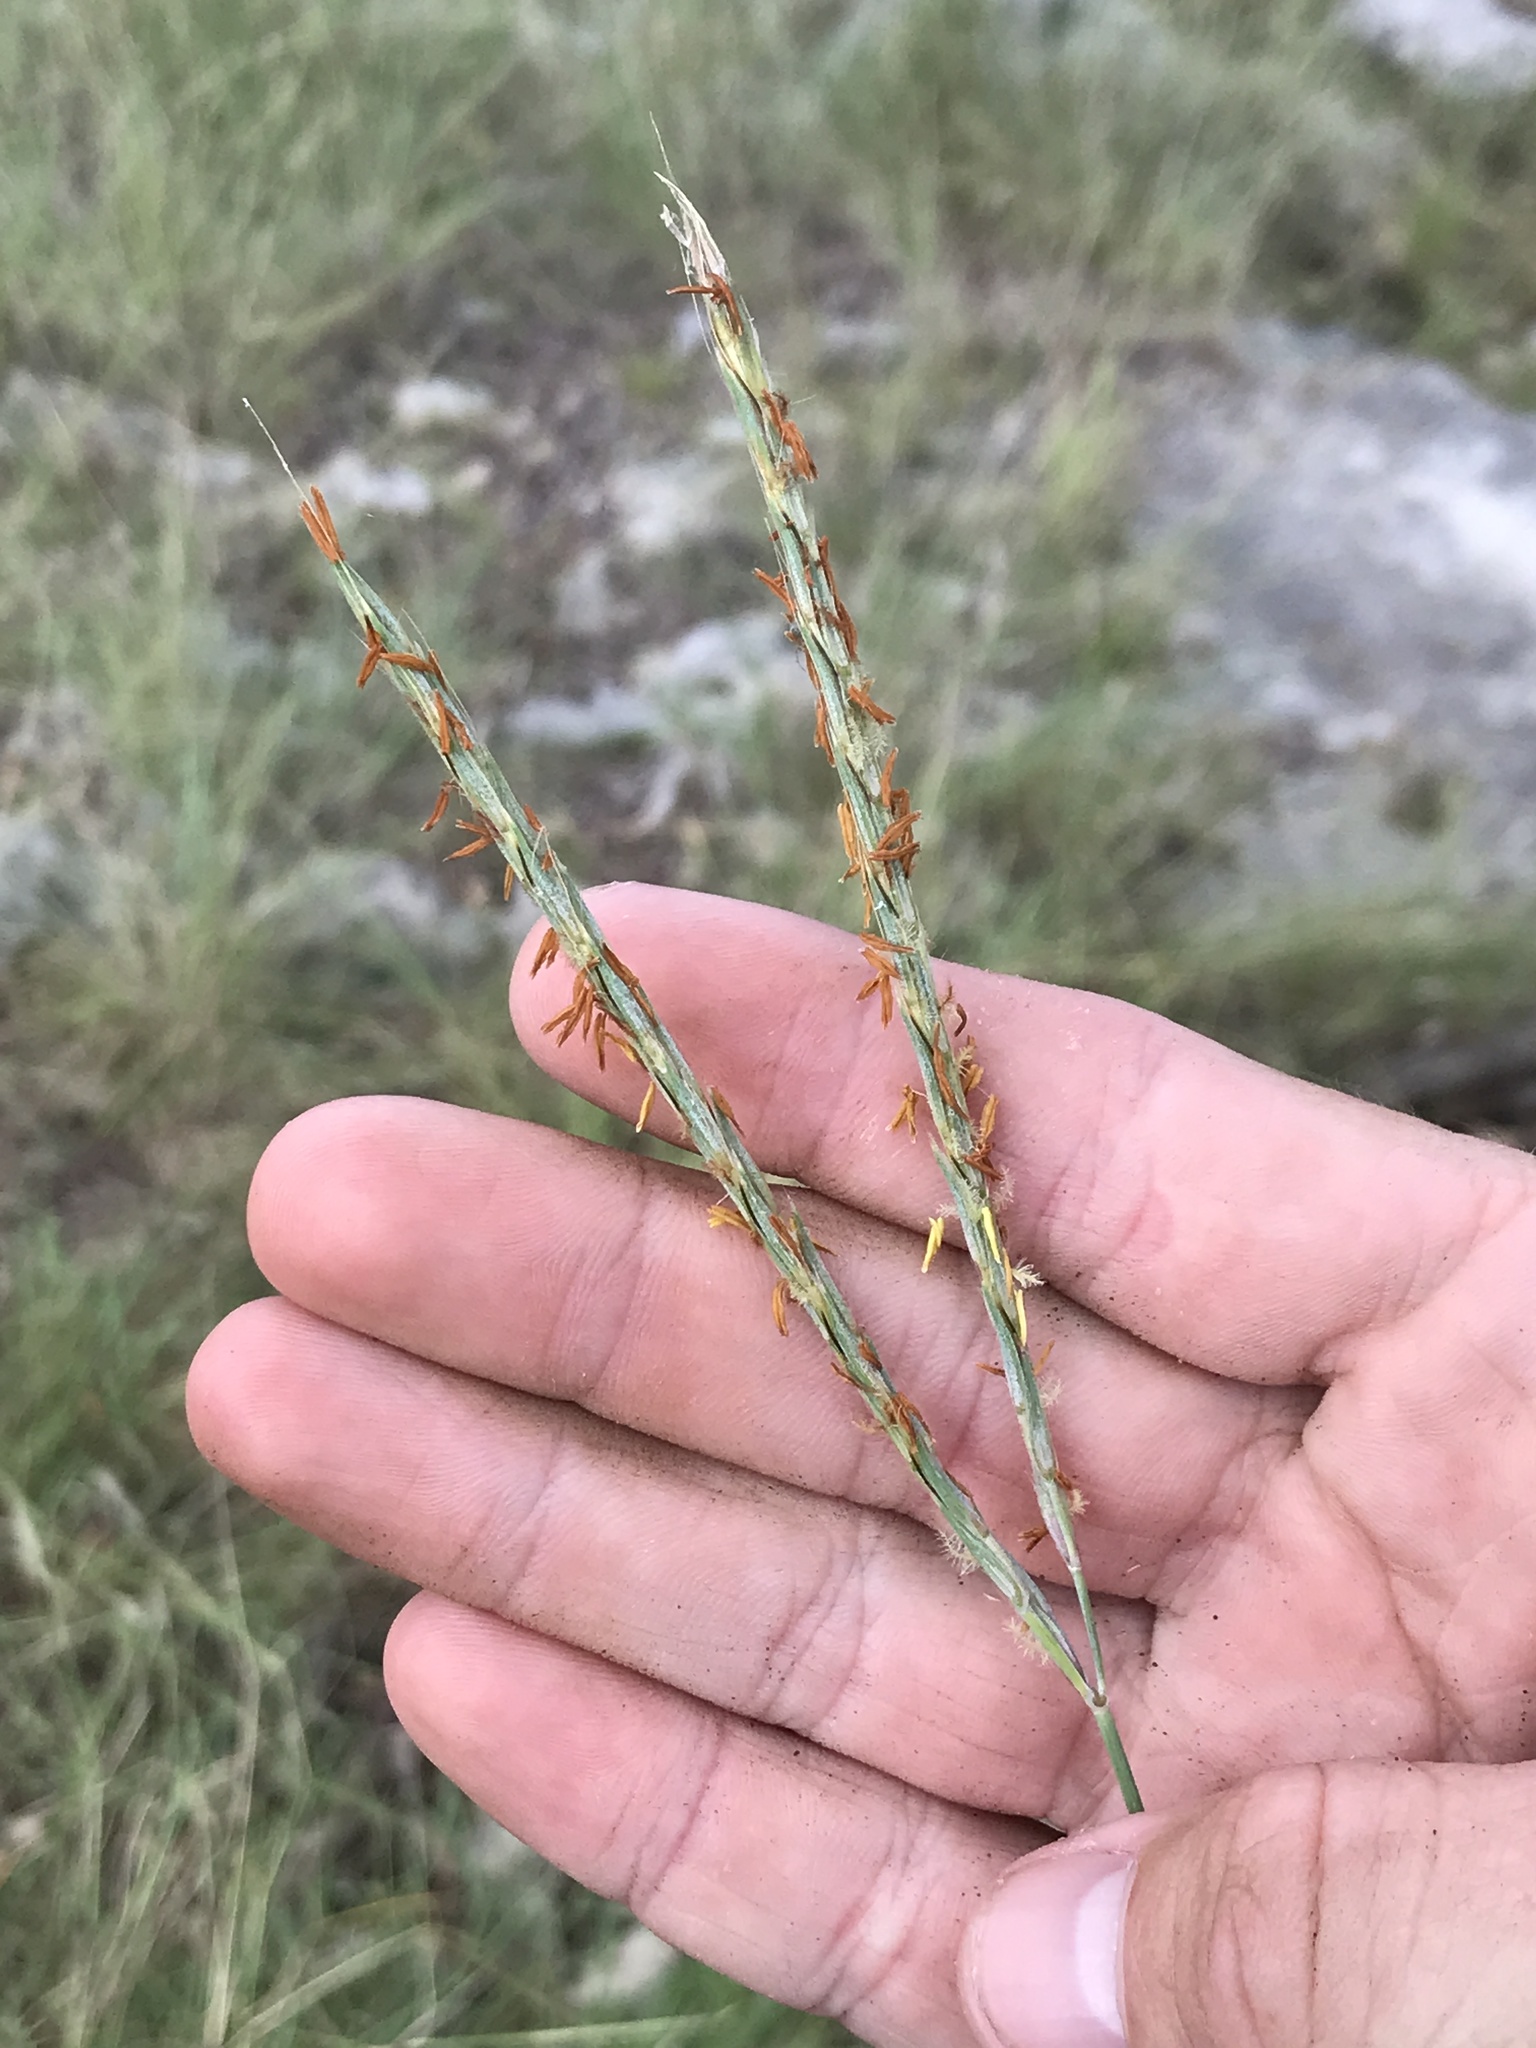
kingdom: Plantae
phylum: Tracheophyta
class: Liliopsida
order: Poales
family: Poaceae
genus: Andropogon
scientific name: Andropogon gerardi
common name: Big bluestem
